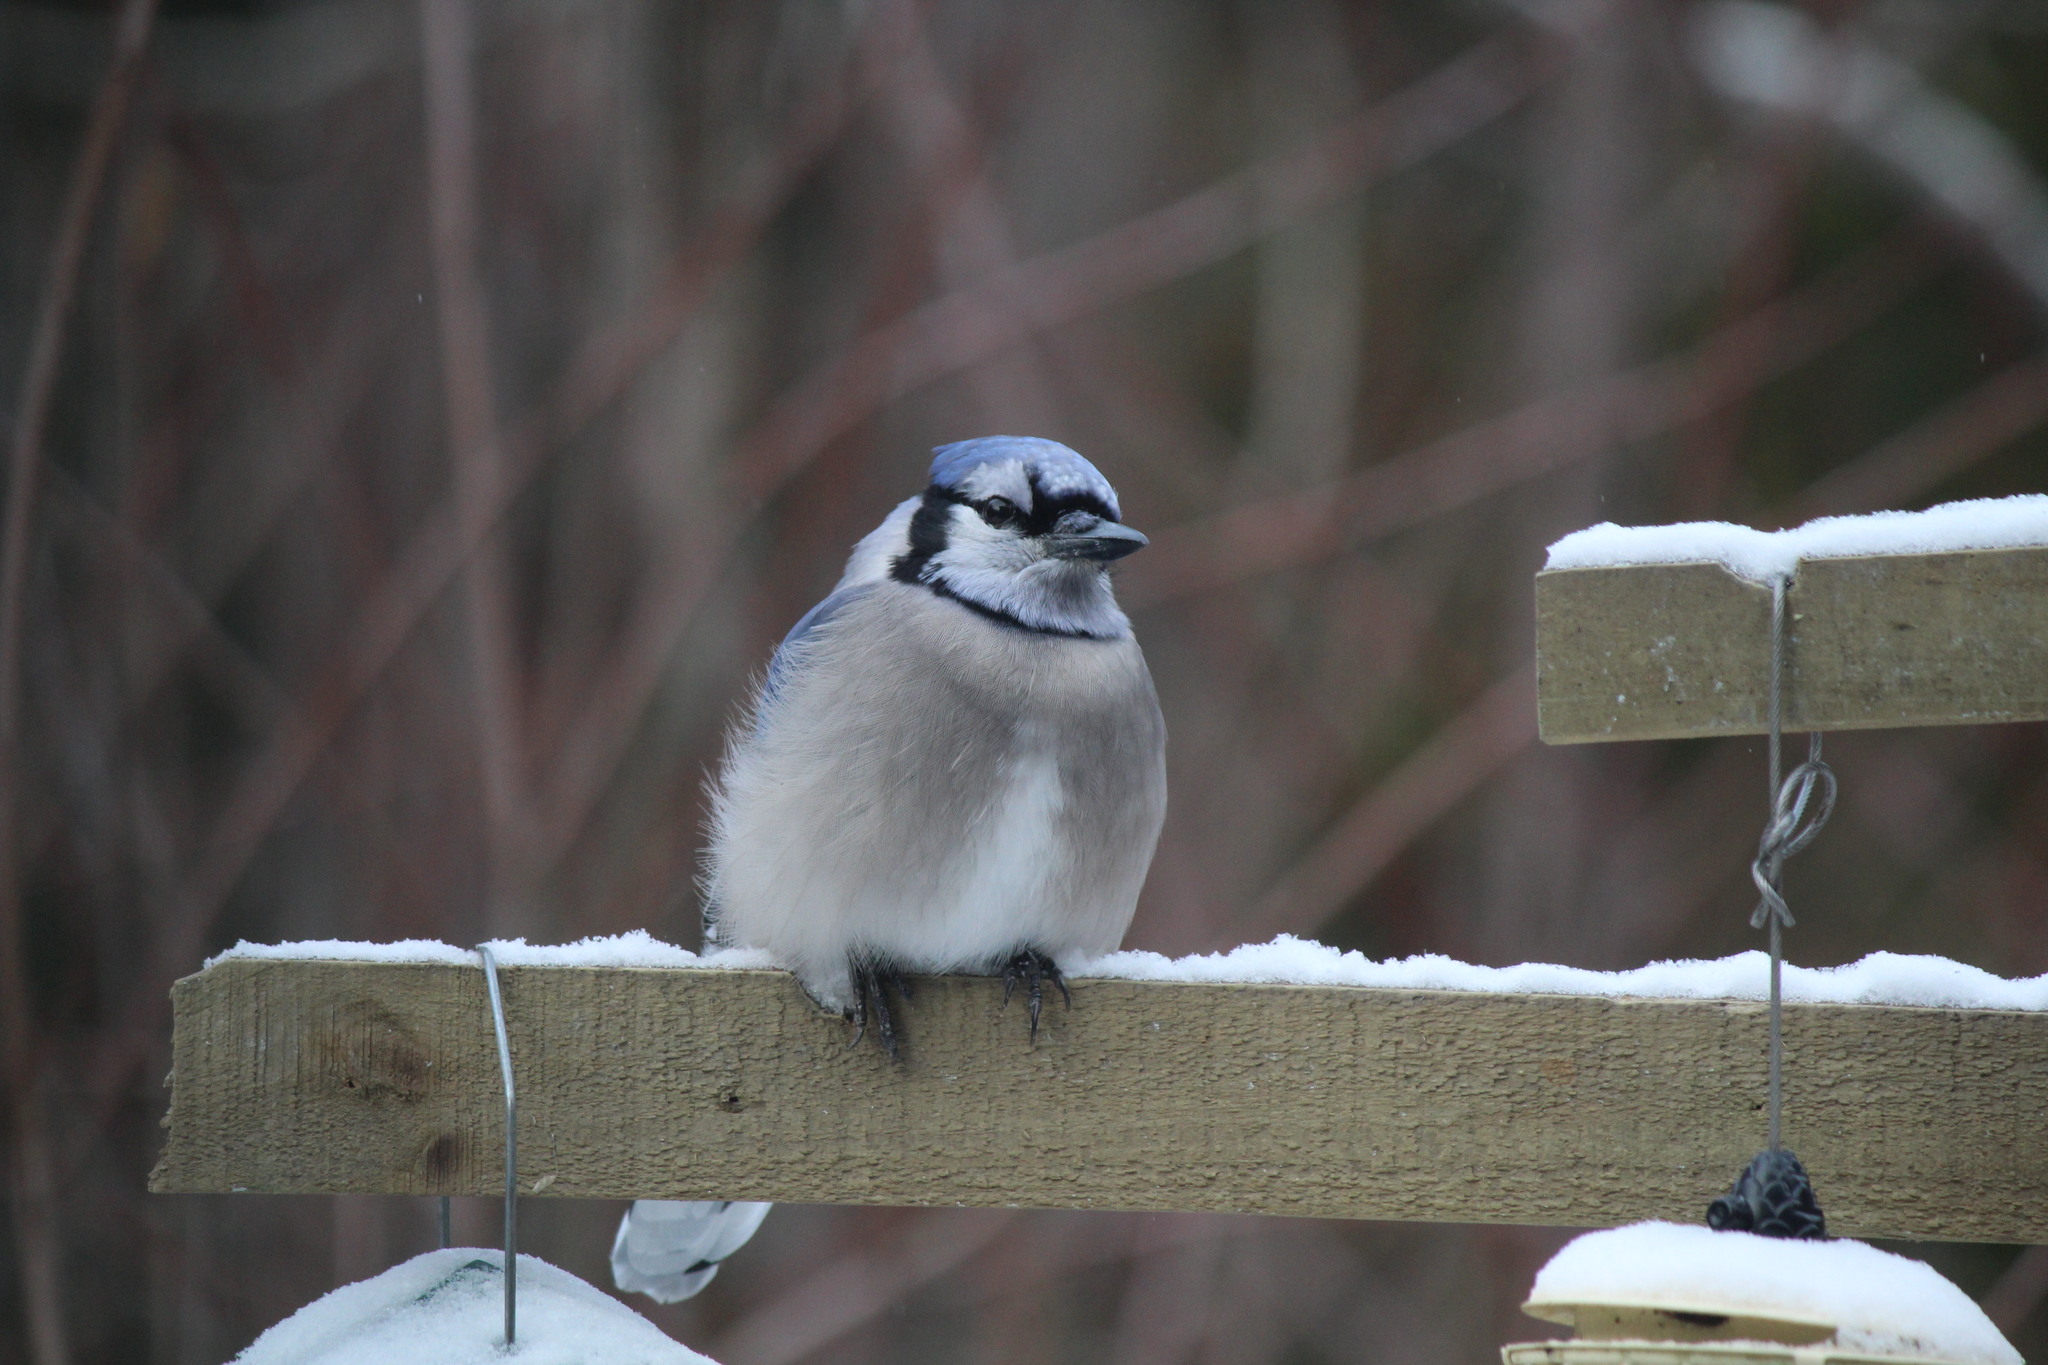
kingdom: Animalia
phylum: Chordata
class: Aves
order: Passeriformes
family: Corvidae
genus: Cyanocitta
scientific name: Cyanocitta cristata
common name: Blue jay
